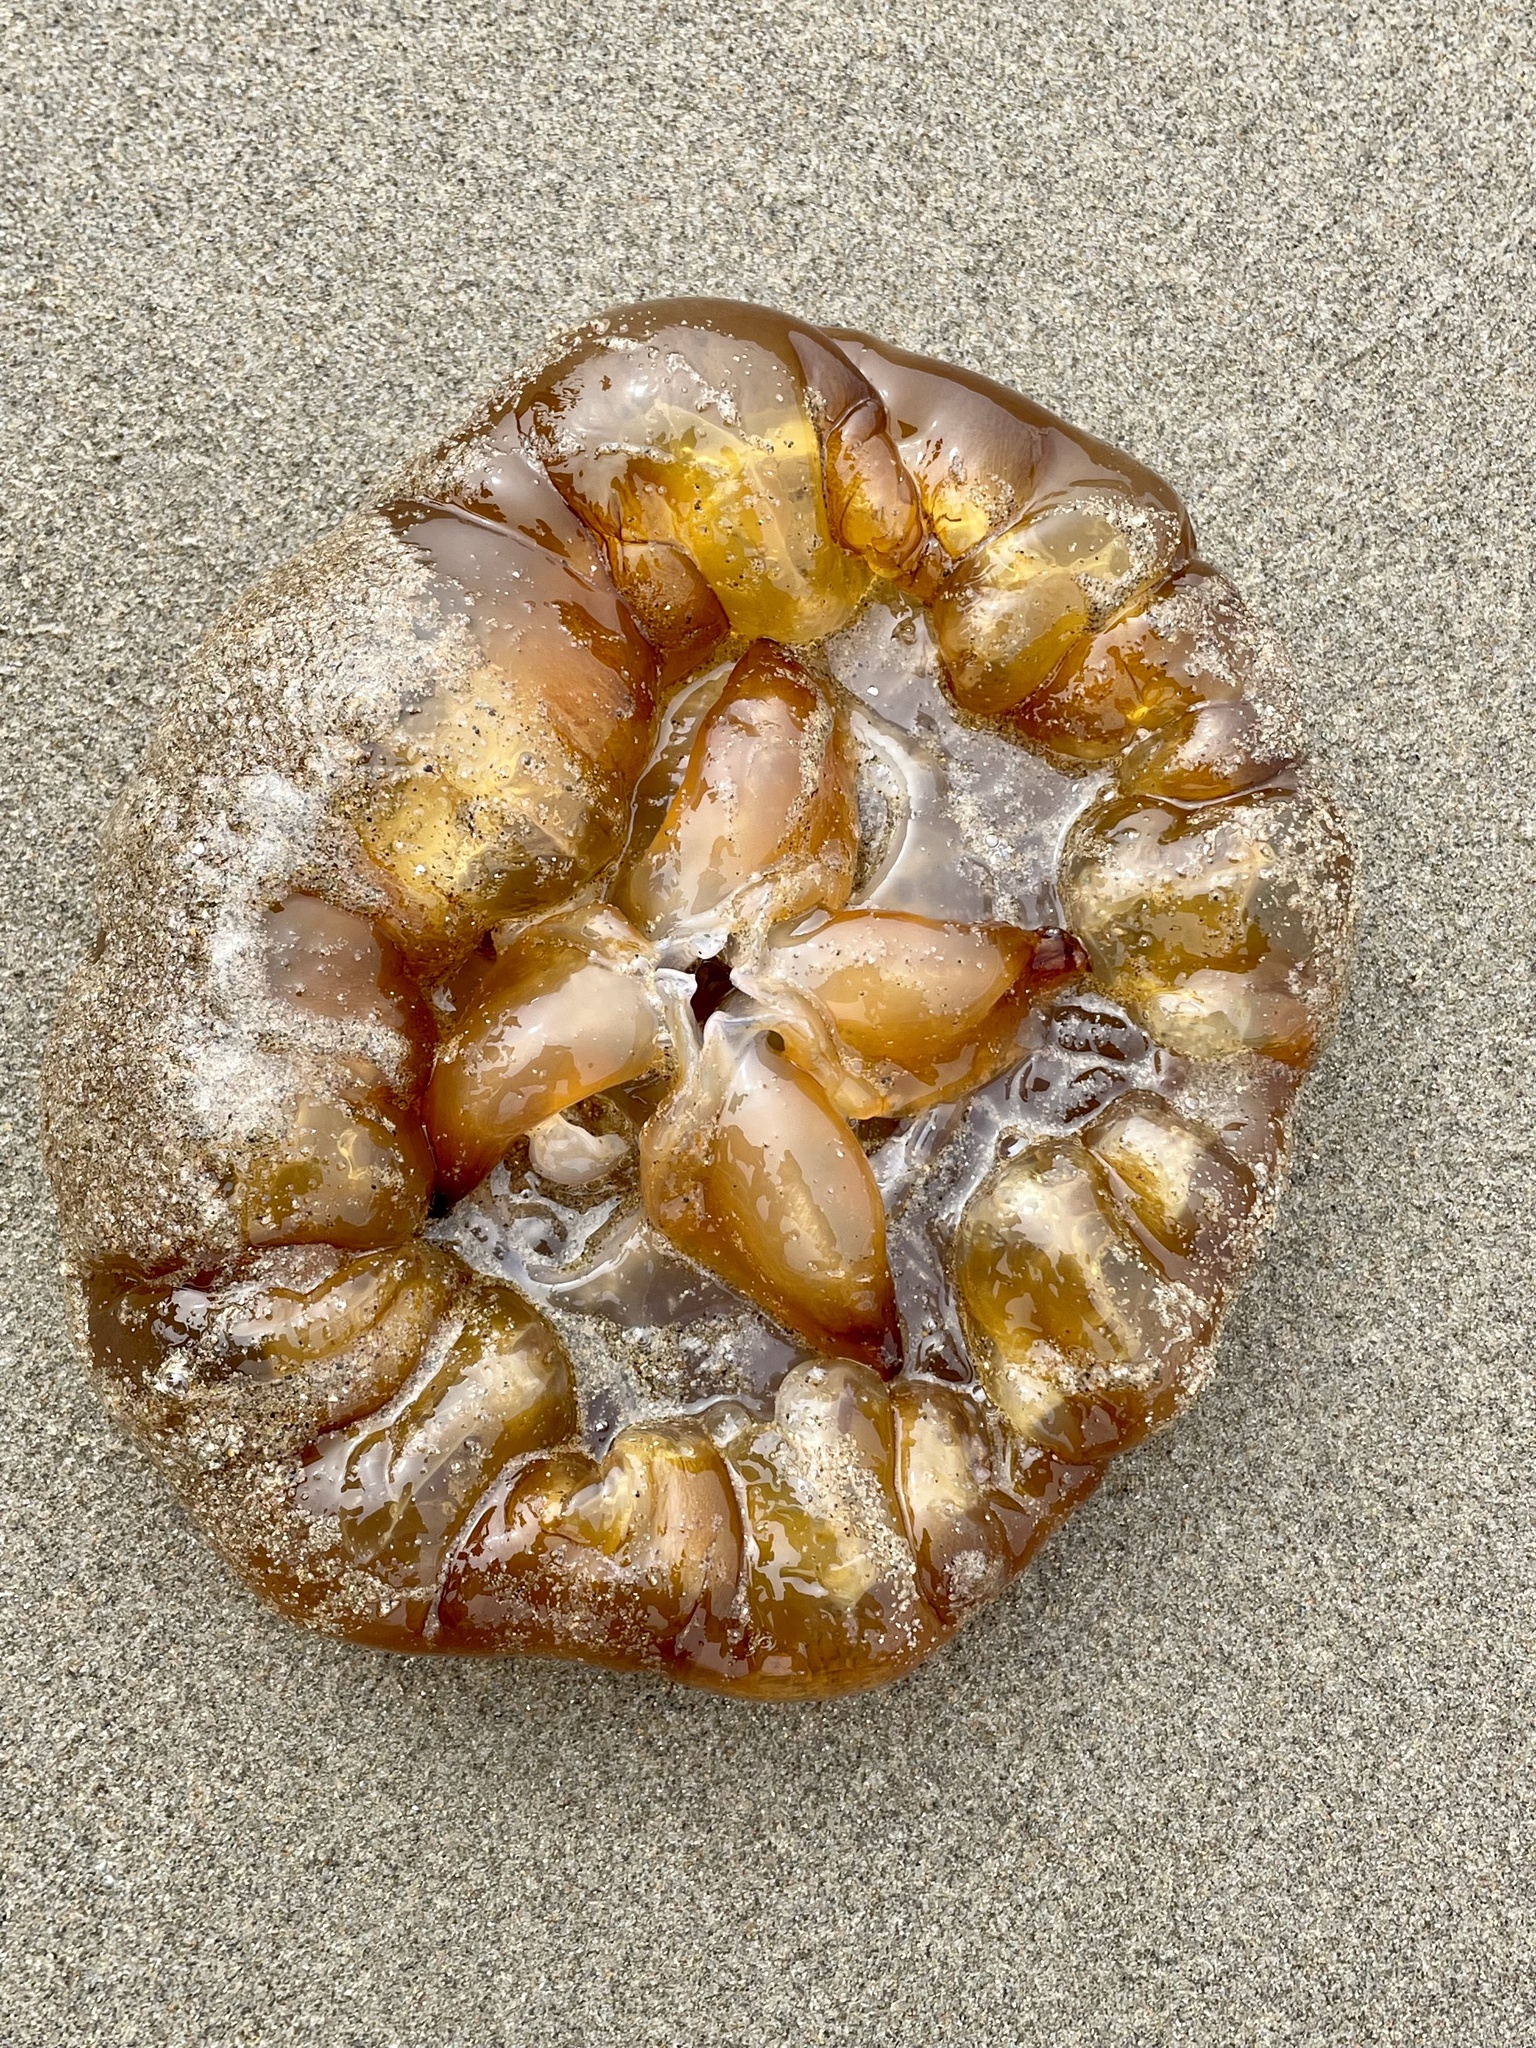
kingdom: Animalia
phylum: Cnidaria
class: Scyphozoa
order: Semaeostomeae
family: Pelagiidae
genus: Chrysaora
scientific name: Chrysaora fuscescens
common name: Sea nettle
